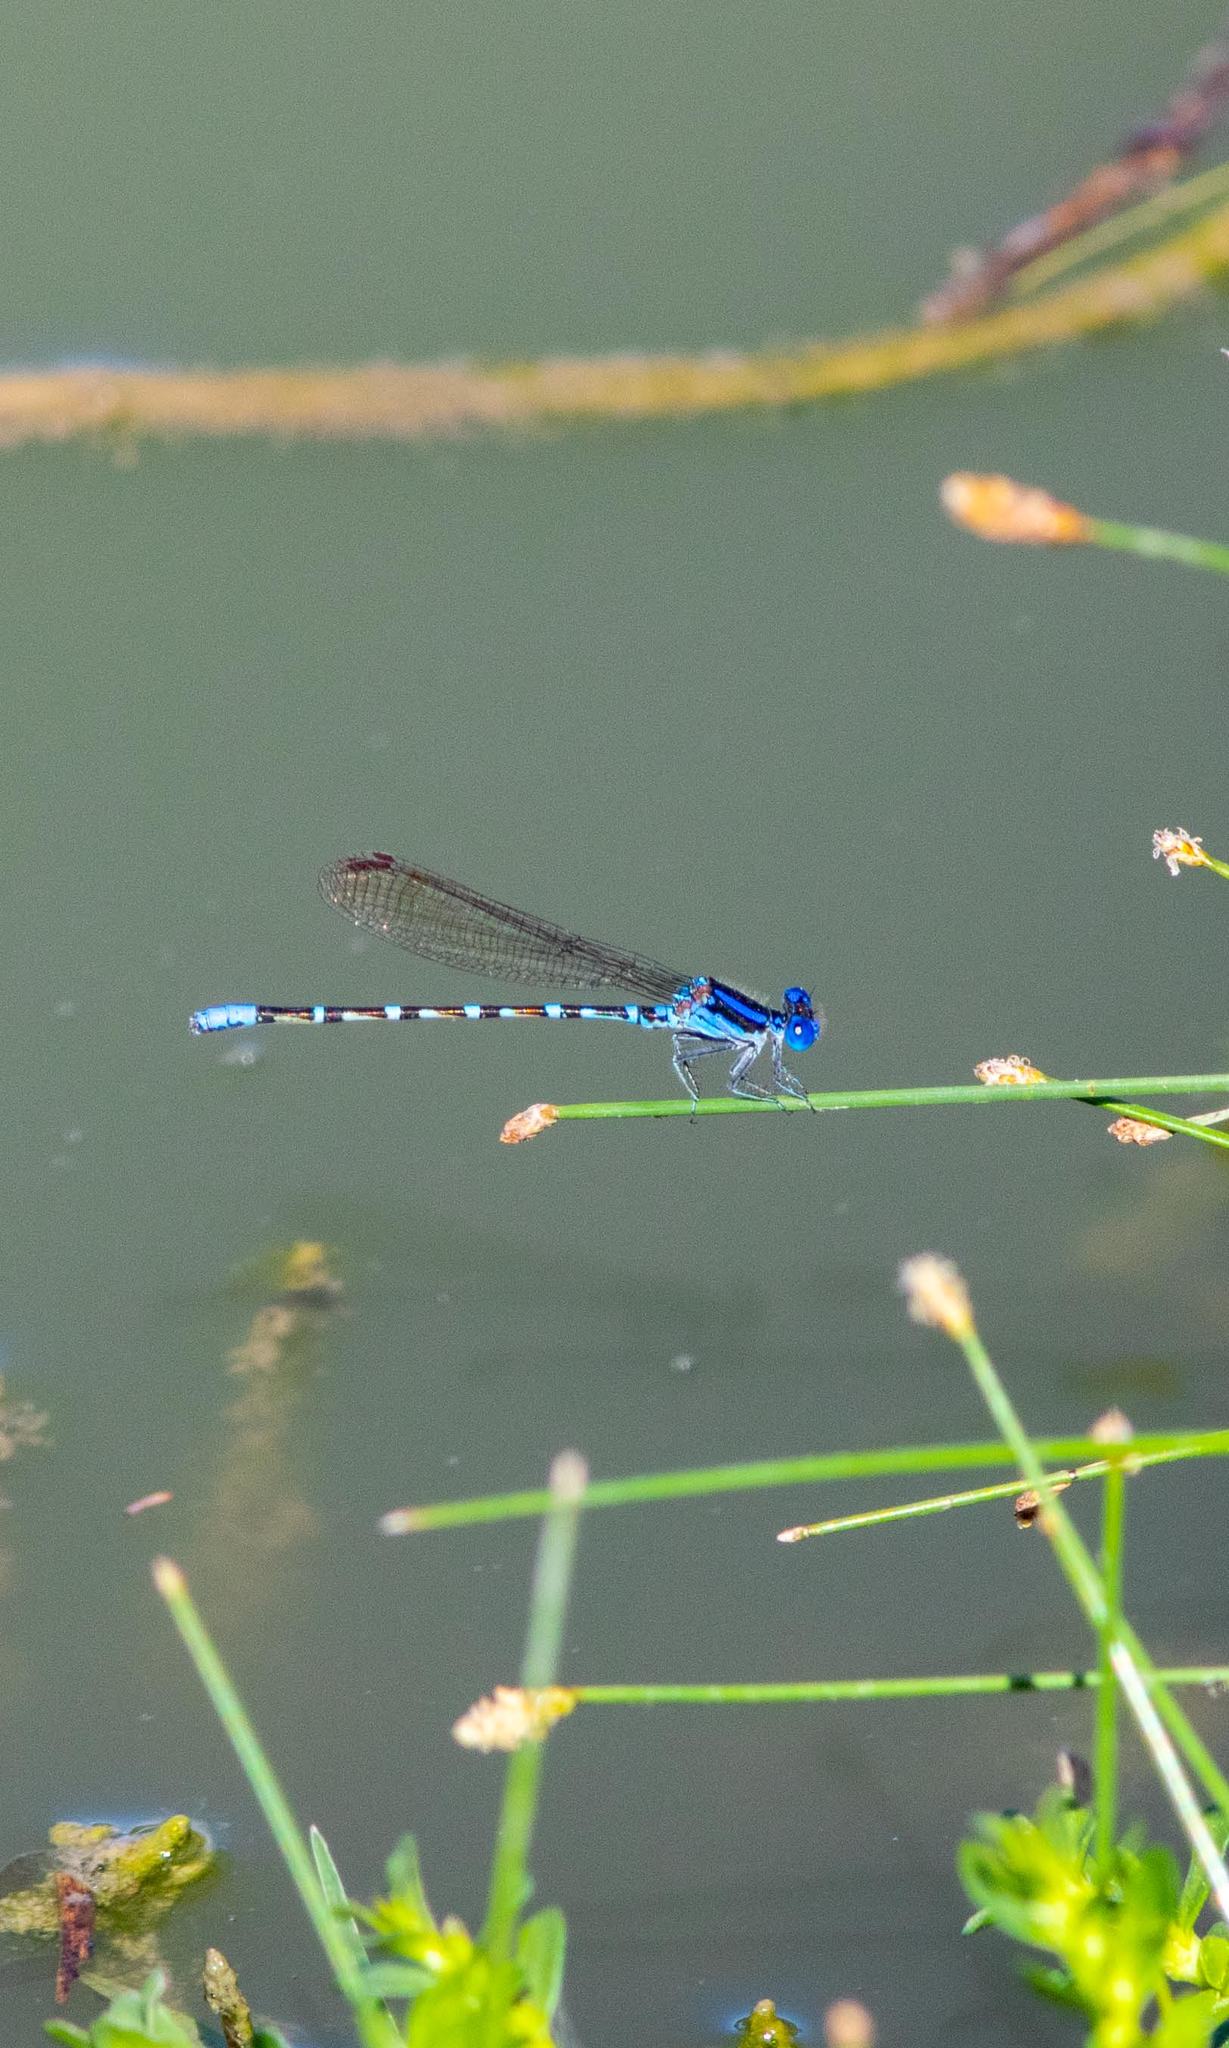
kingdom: Animalia
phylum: Arthropoda
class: Insecta
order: Odonata
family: Coenagrionidae
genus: Argia
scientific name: Argia sedula
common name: Blue-ringed dancer
